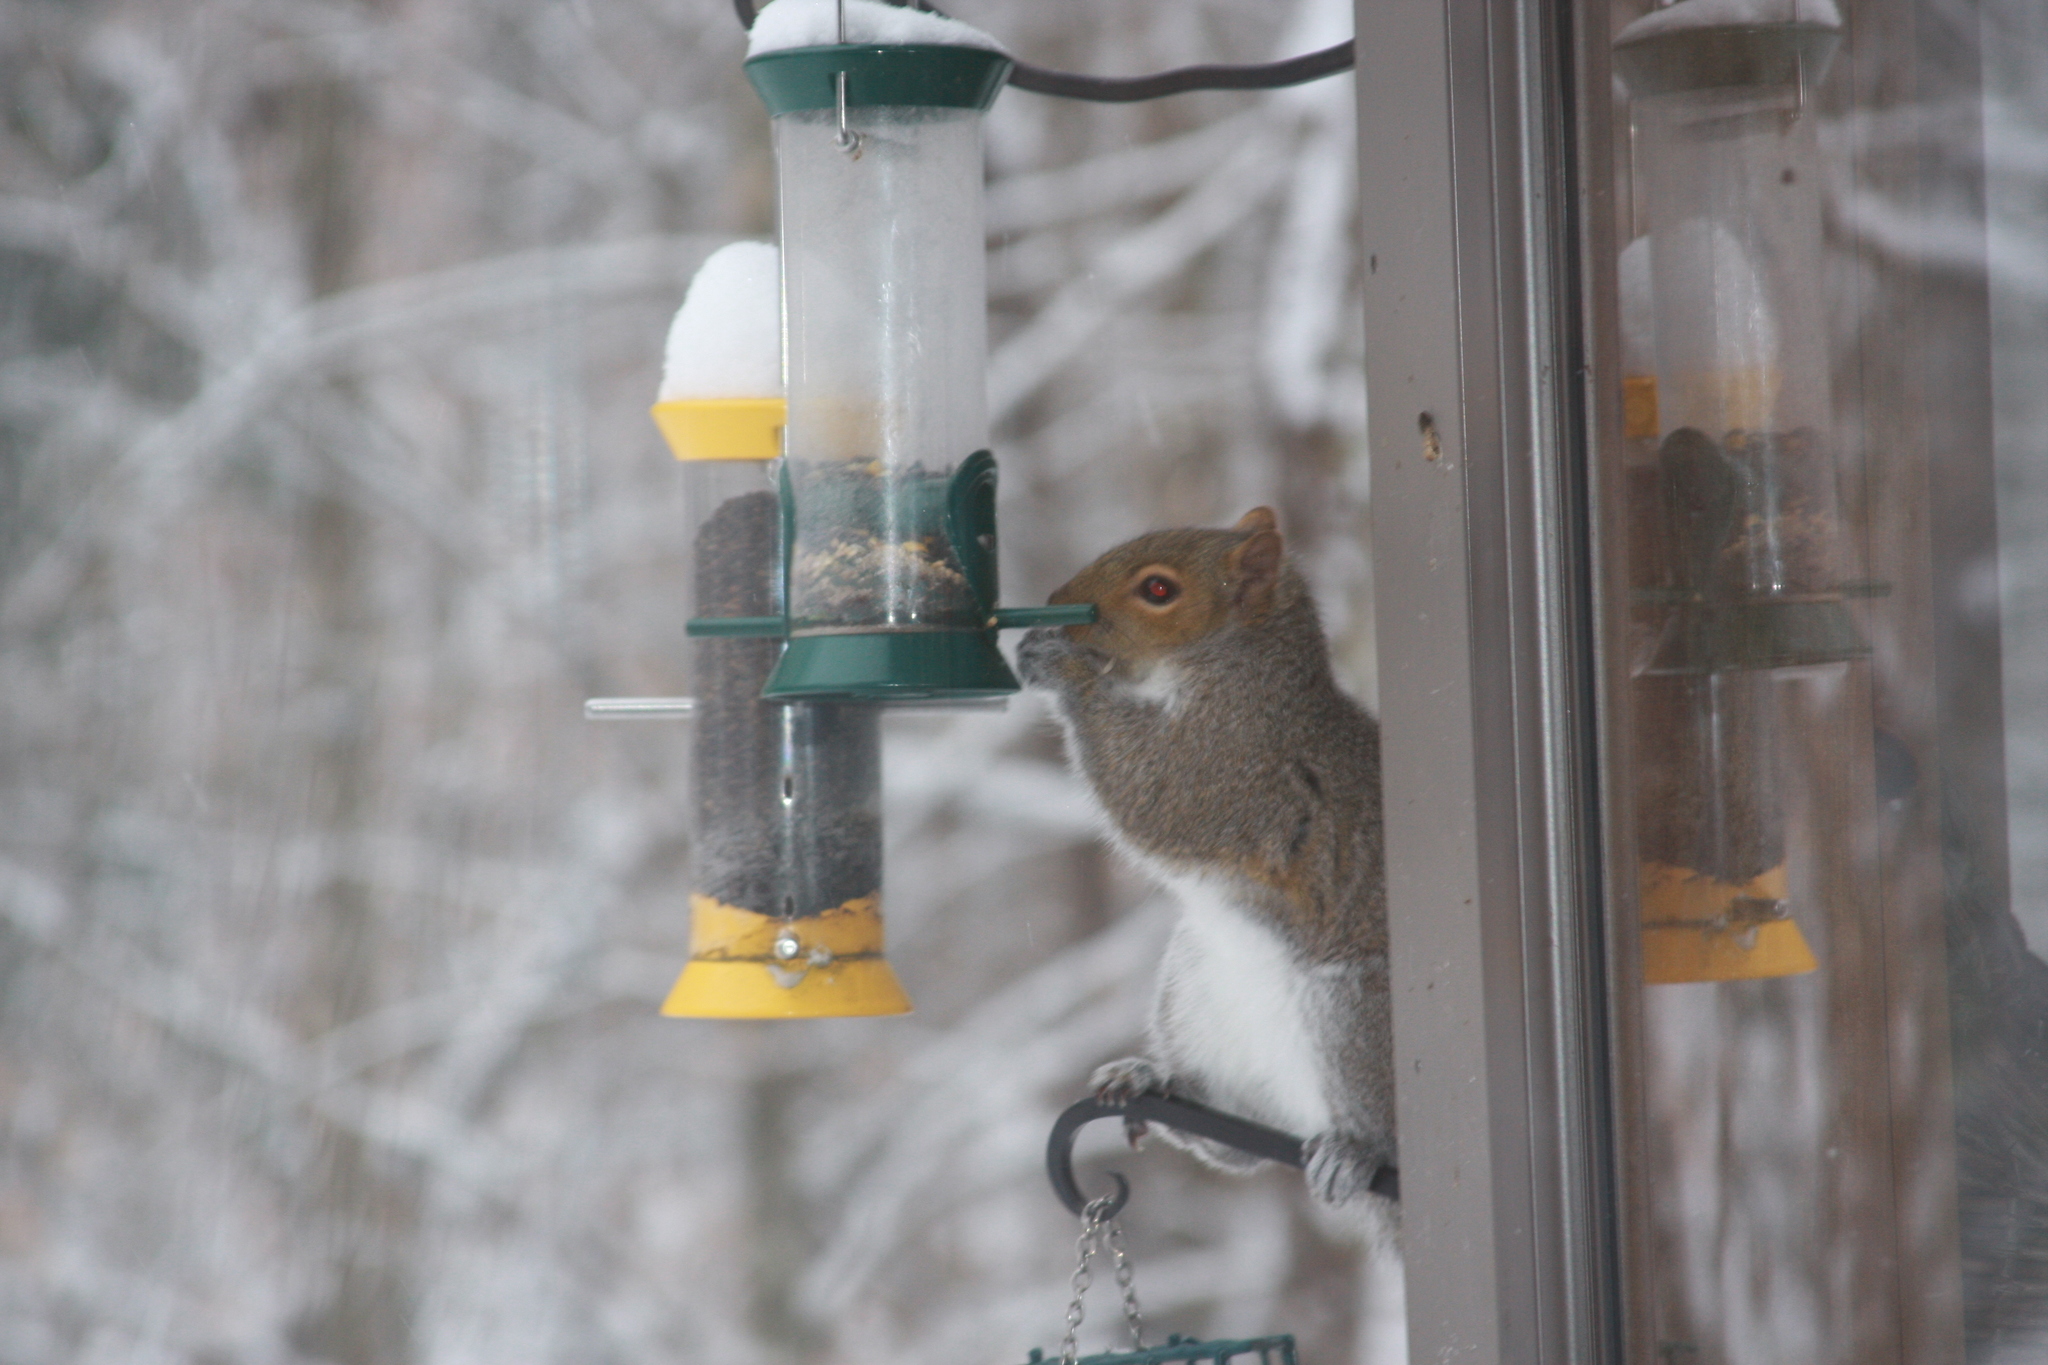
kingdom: Animalia
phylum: Chordata
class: Mammalia
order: Rodentia
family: Sciuridae
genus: Sciurus
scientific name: Sciurus carolinensis
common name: Eastern gray squirrel
